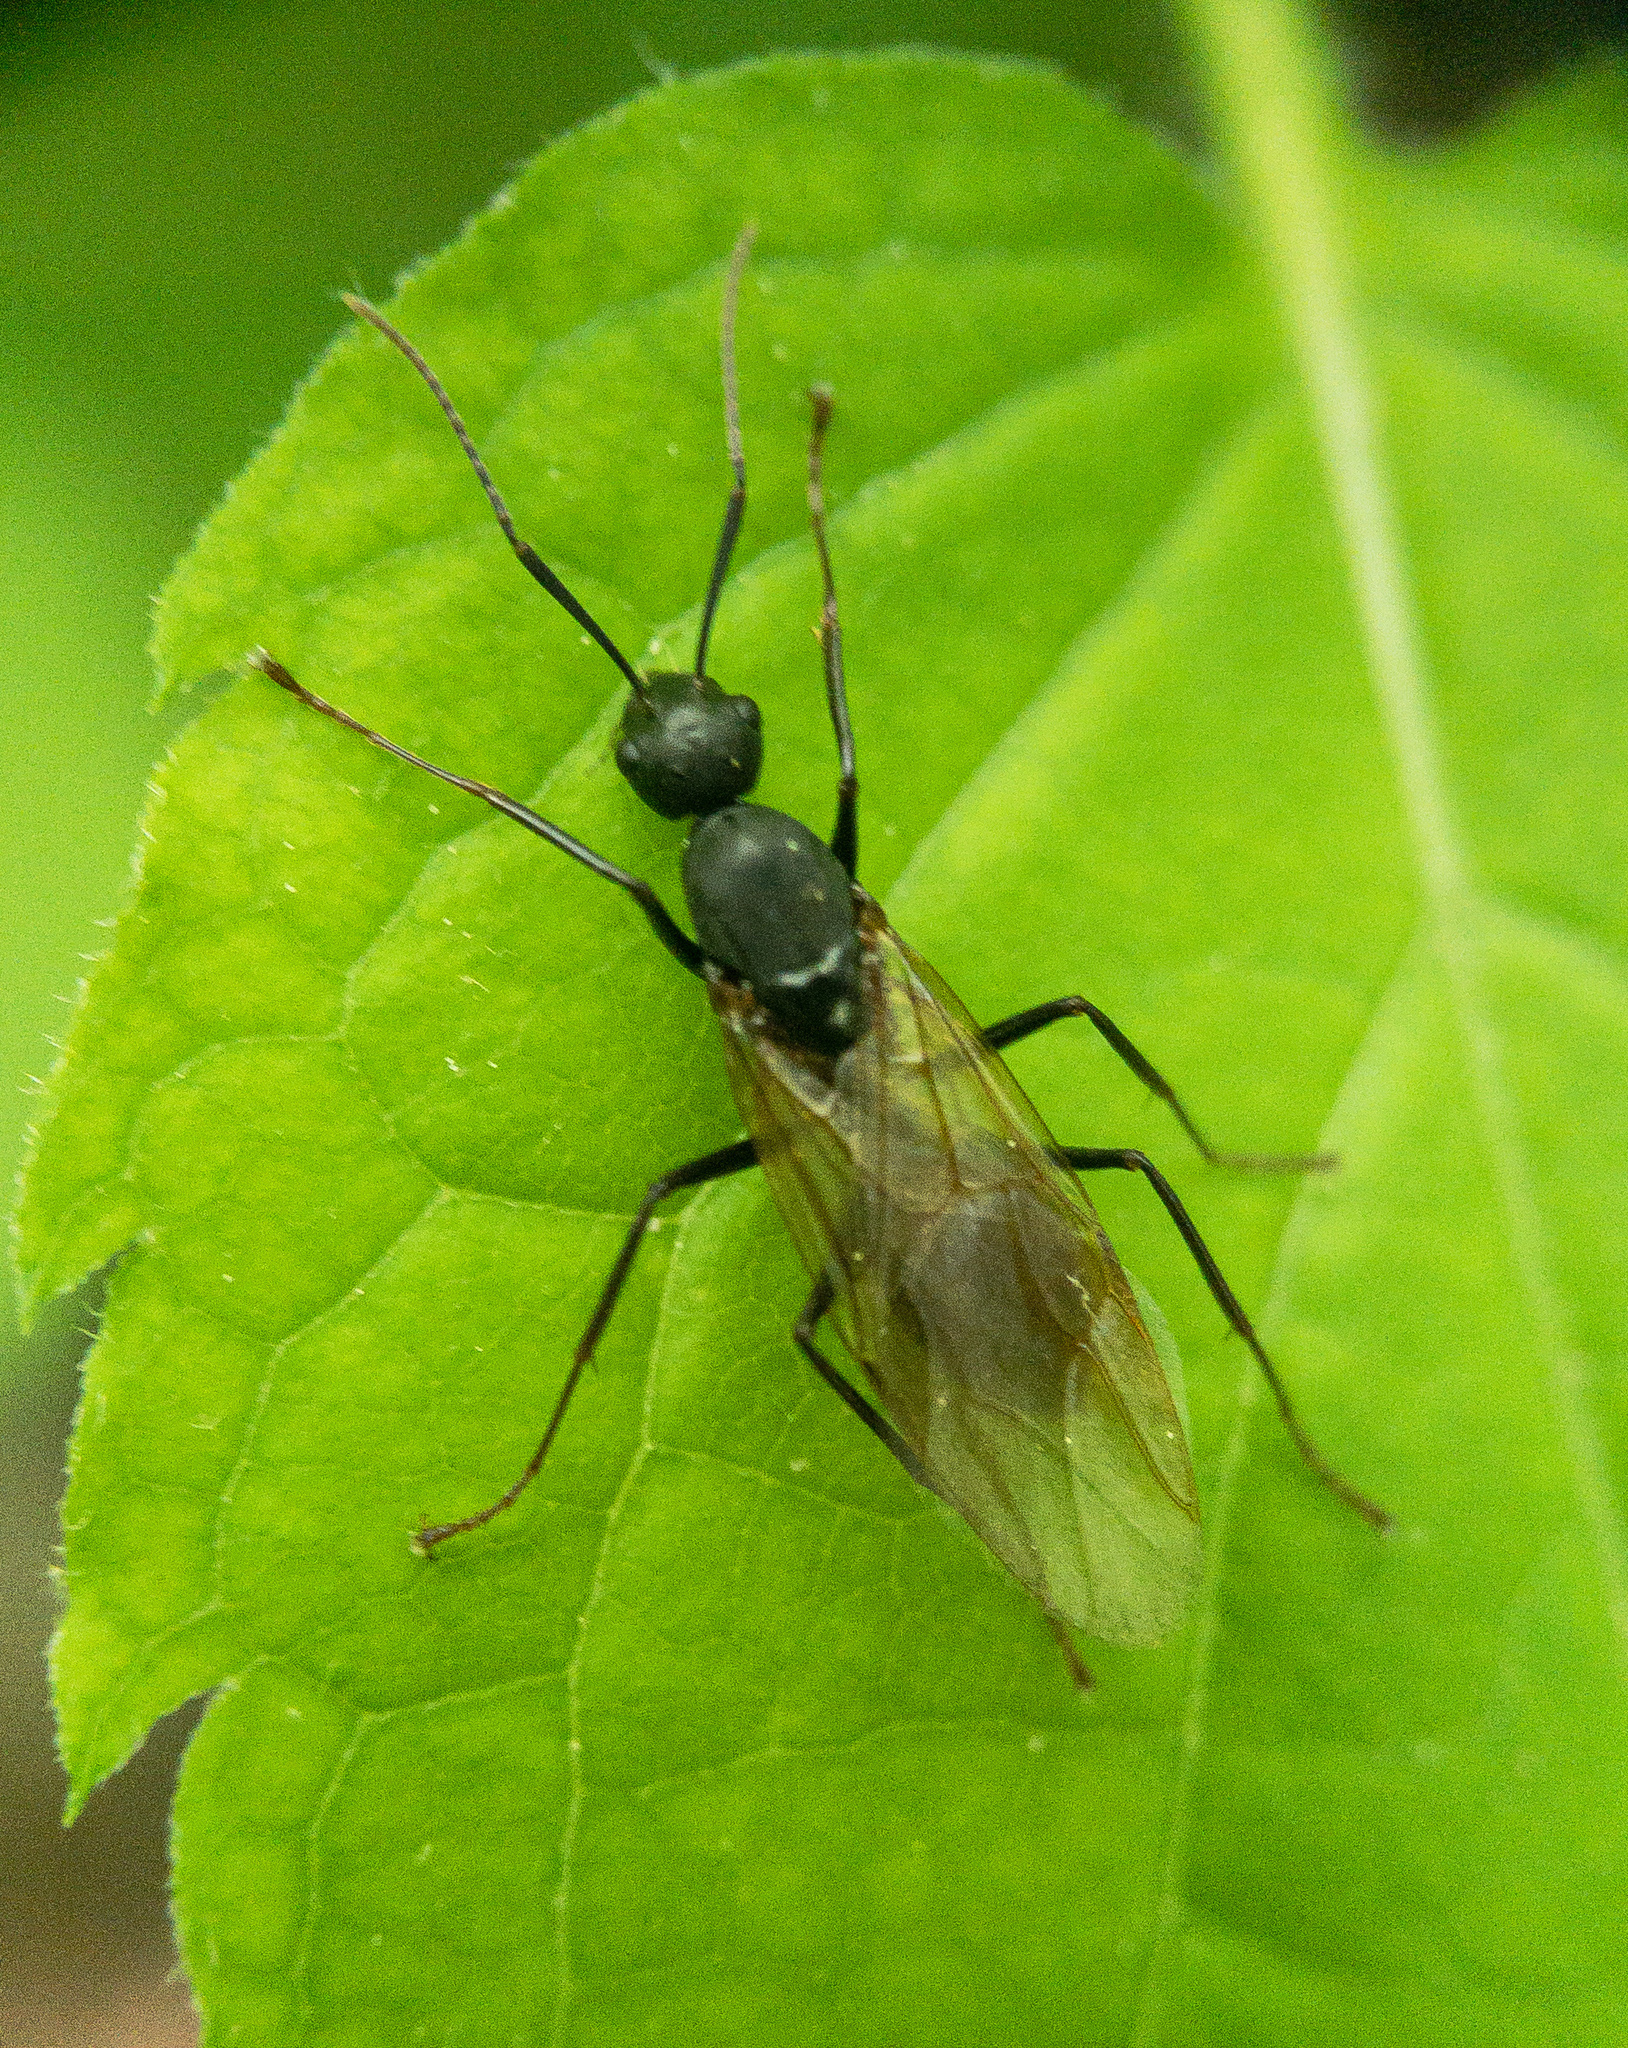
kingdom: Animalia
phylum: Arthropoda
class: Insecta
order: Hymenoptera
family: Formicidae
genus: Camponotus
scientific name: Camponotus pennsylvanicus
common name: Black carpenter ant
